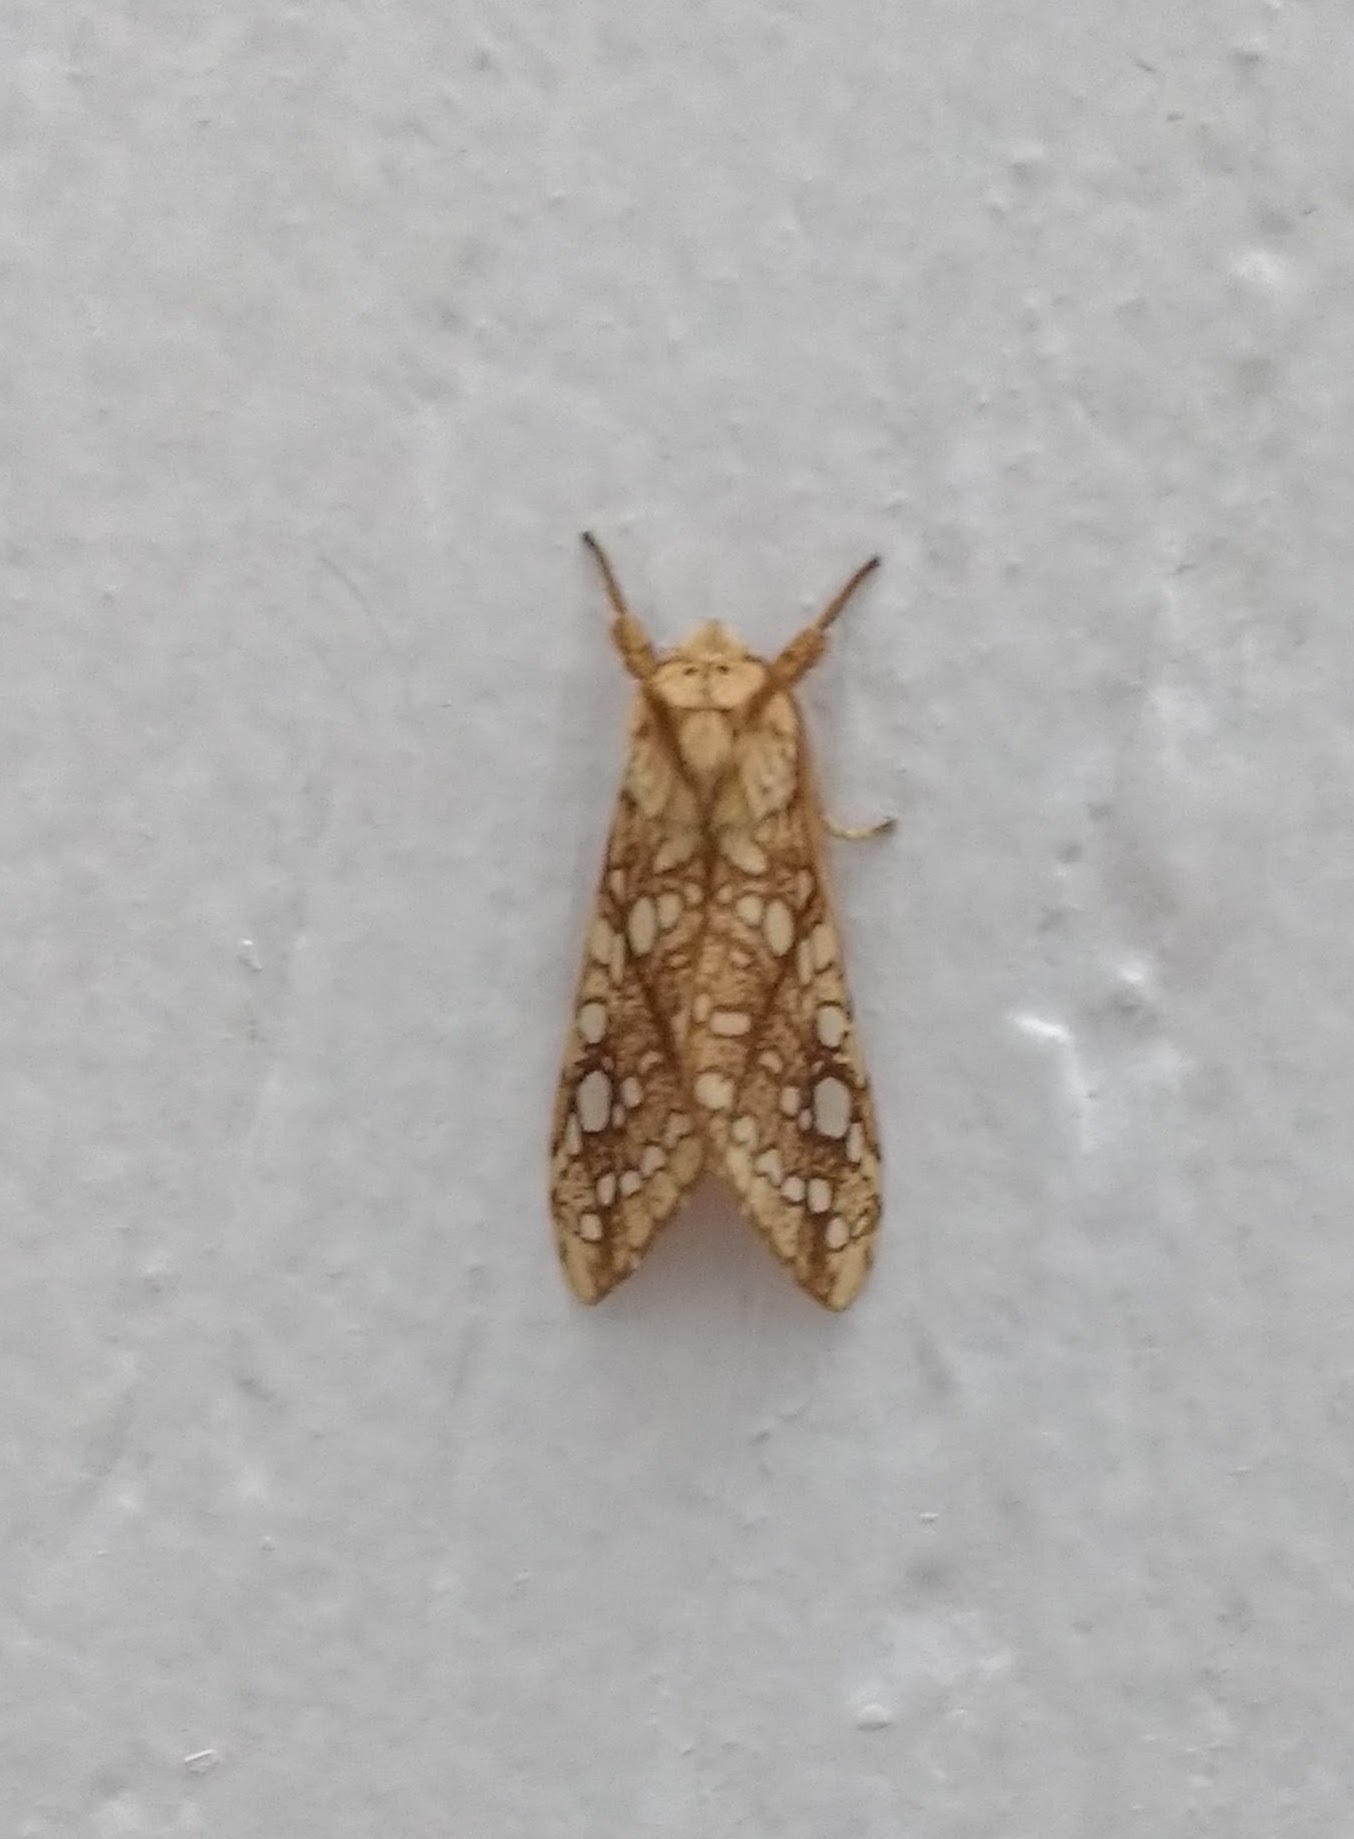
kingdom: Animalia
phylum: Arthropoda
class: Insecta
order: Lepidoptera
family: Erebidae
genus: Lophocampa
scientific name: Lophocampa caryae
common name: Hickory tussock moth
